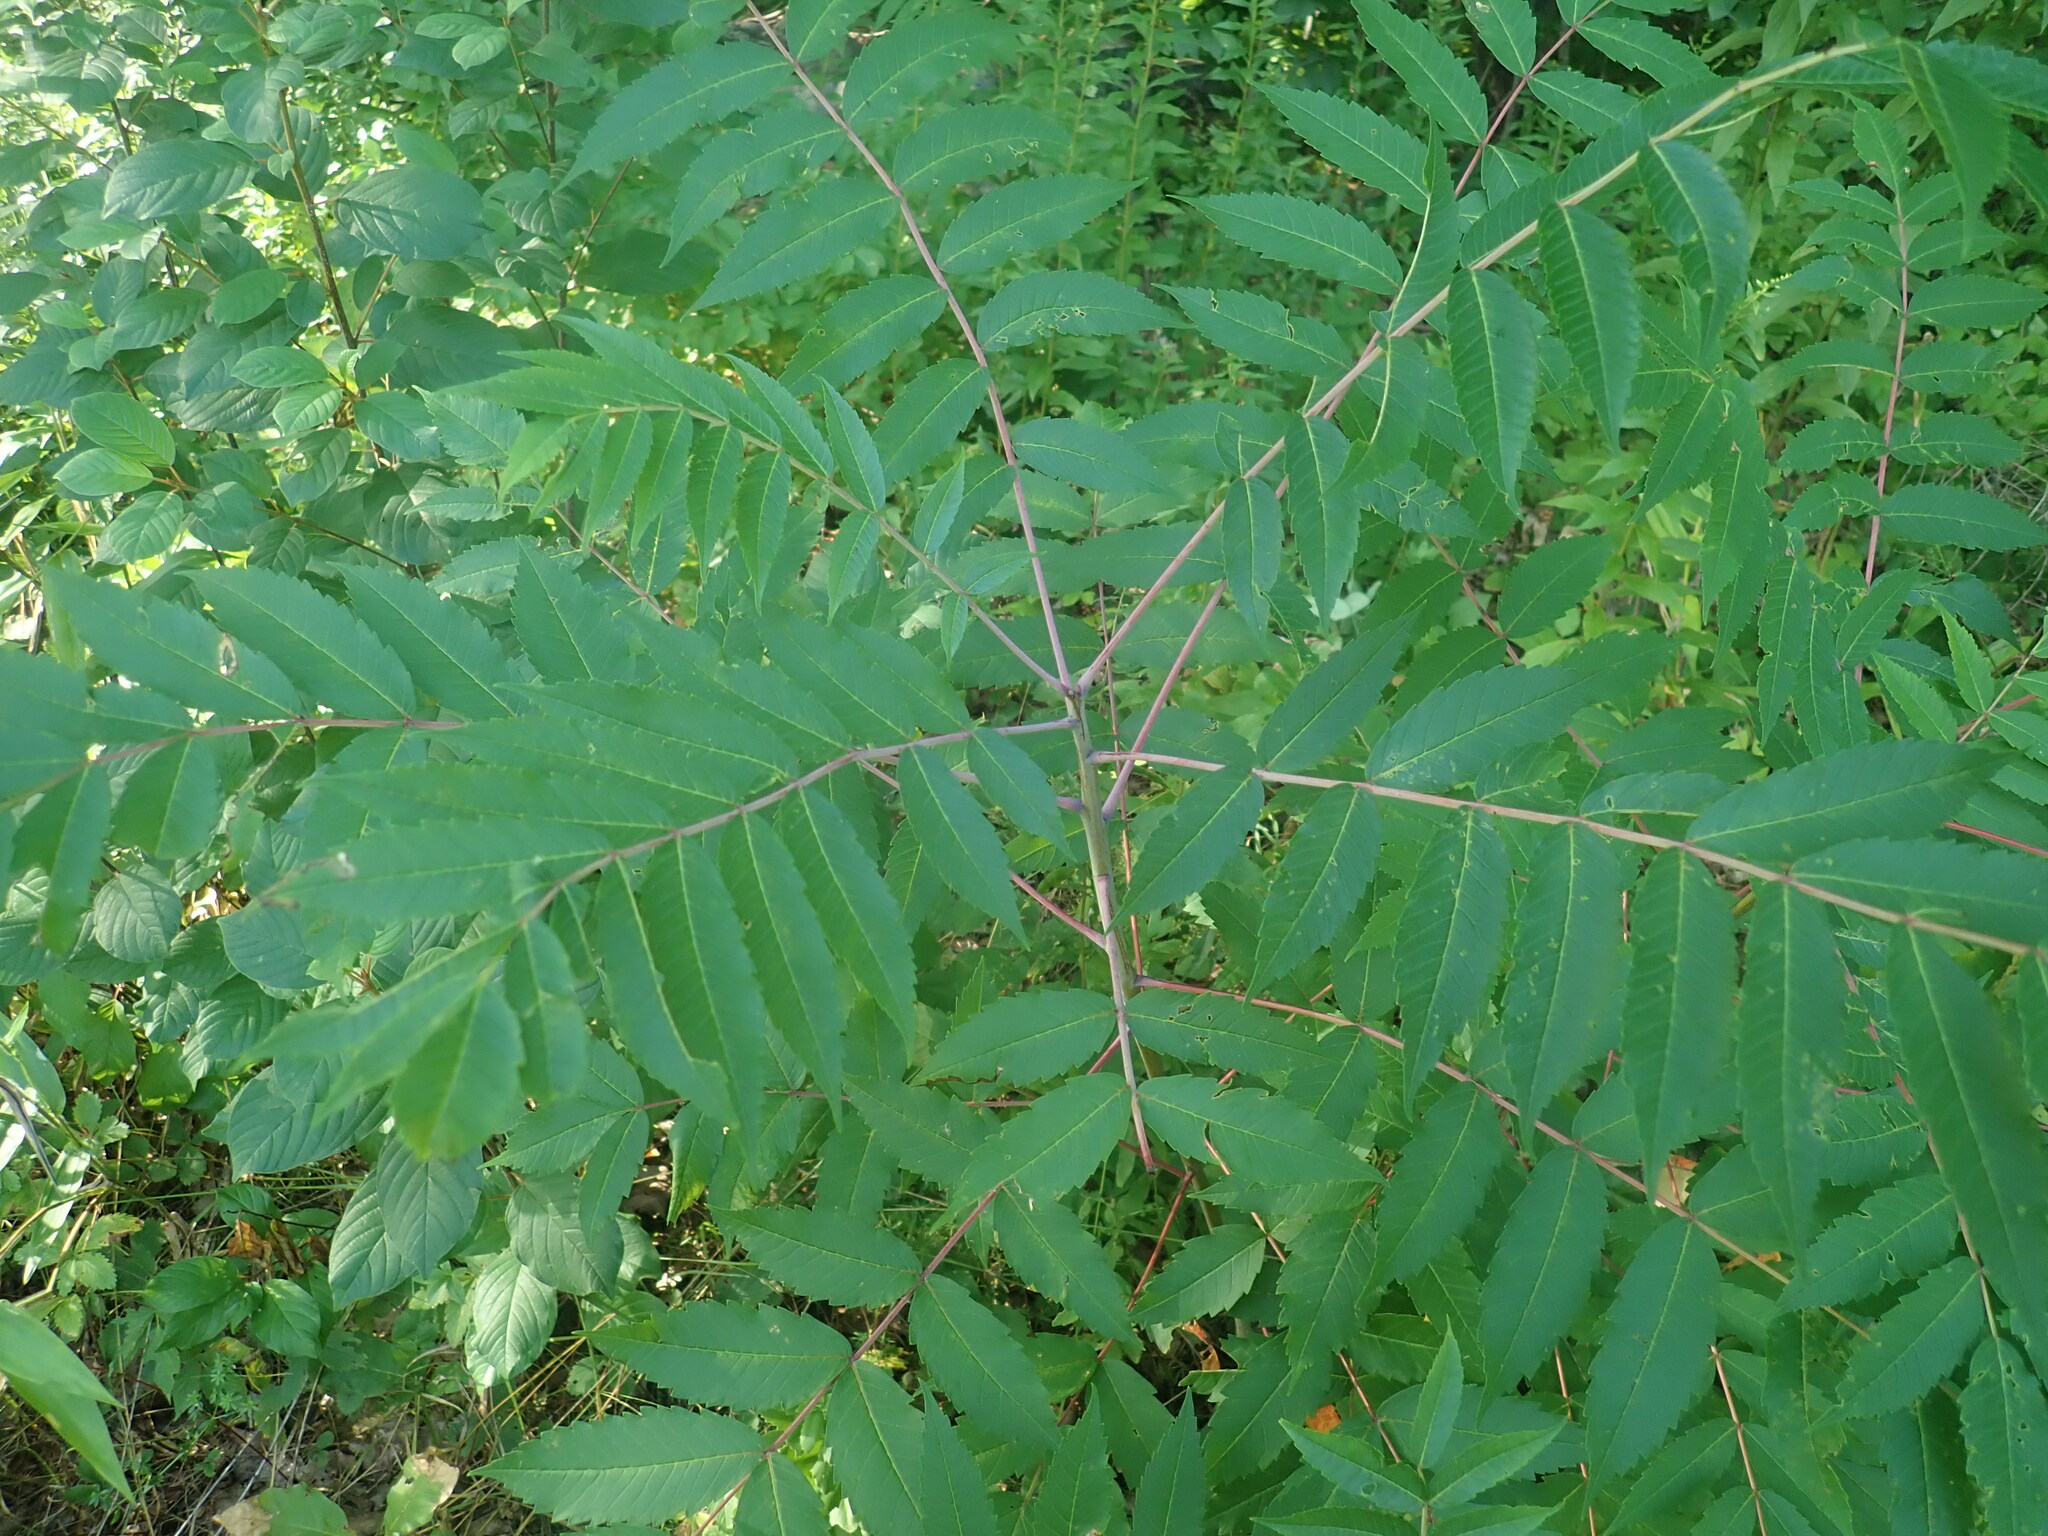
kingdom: Plantae
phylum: Tracheophyta
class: Magnoliopsida
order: Sapindales
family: Anacardiaceae
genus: Rhus
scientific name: Rhus glabra
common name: Scarlet sumac
